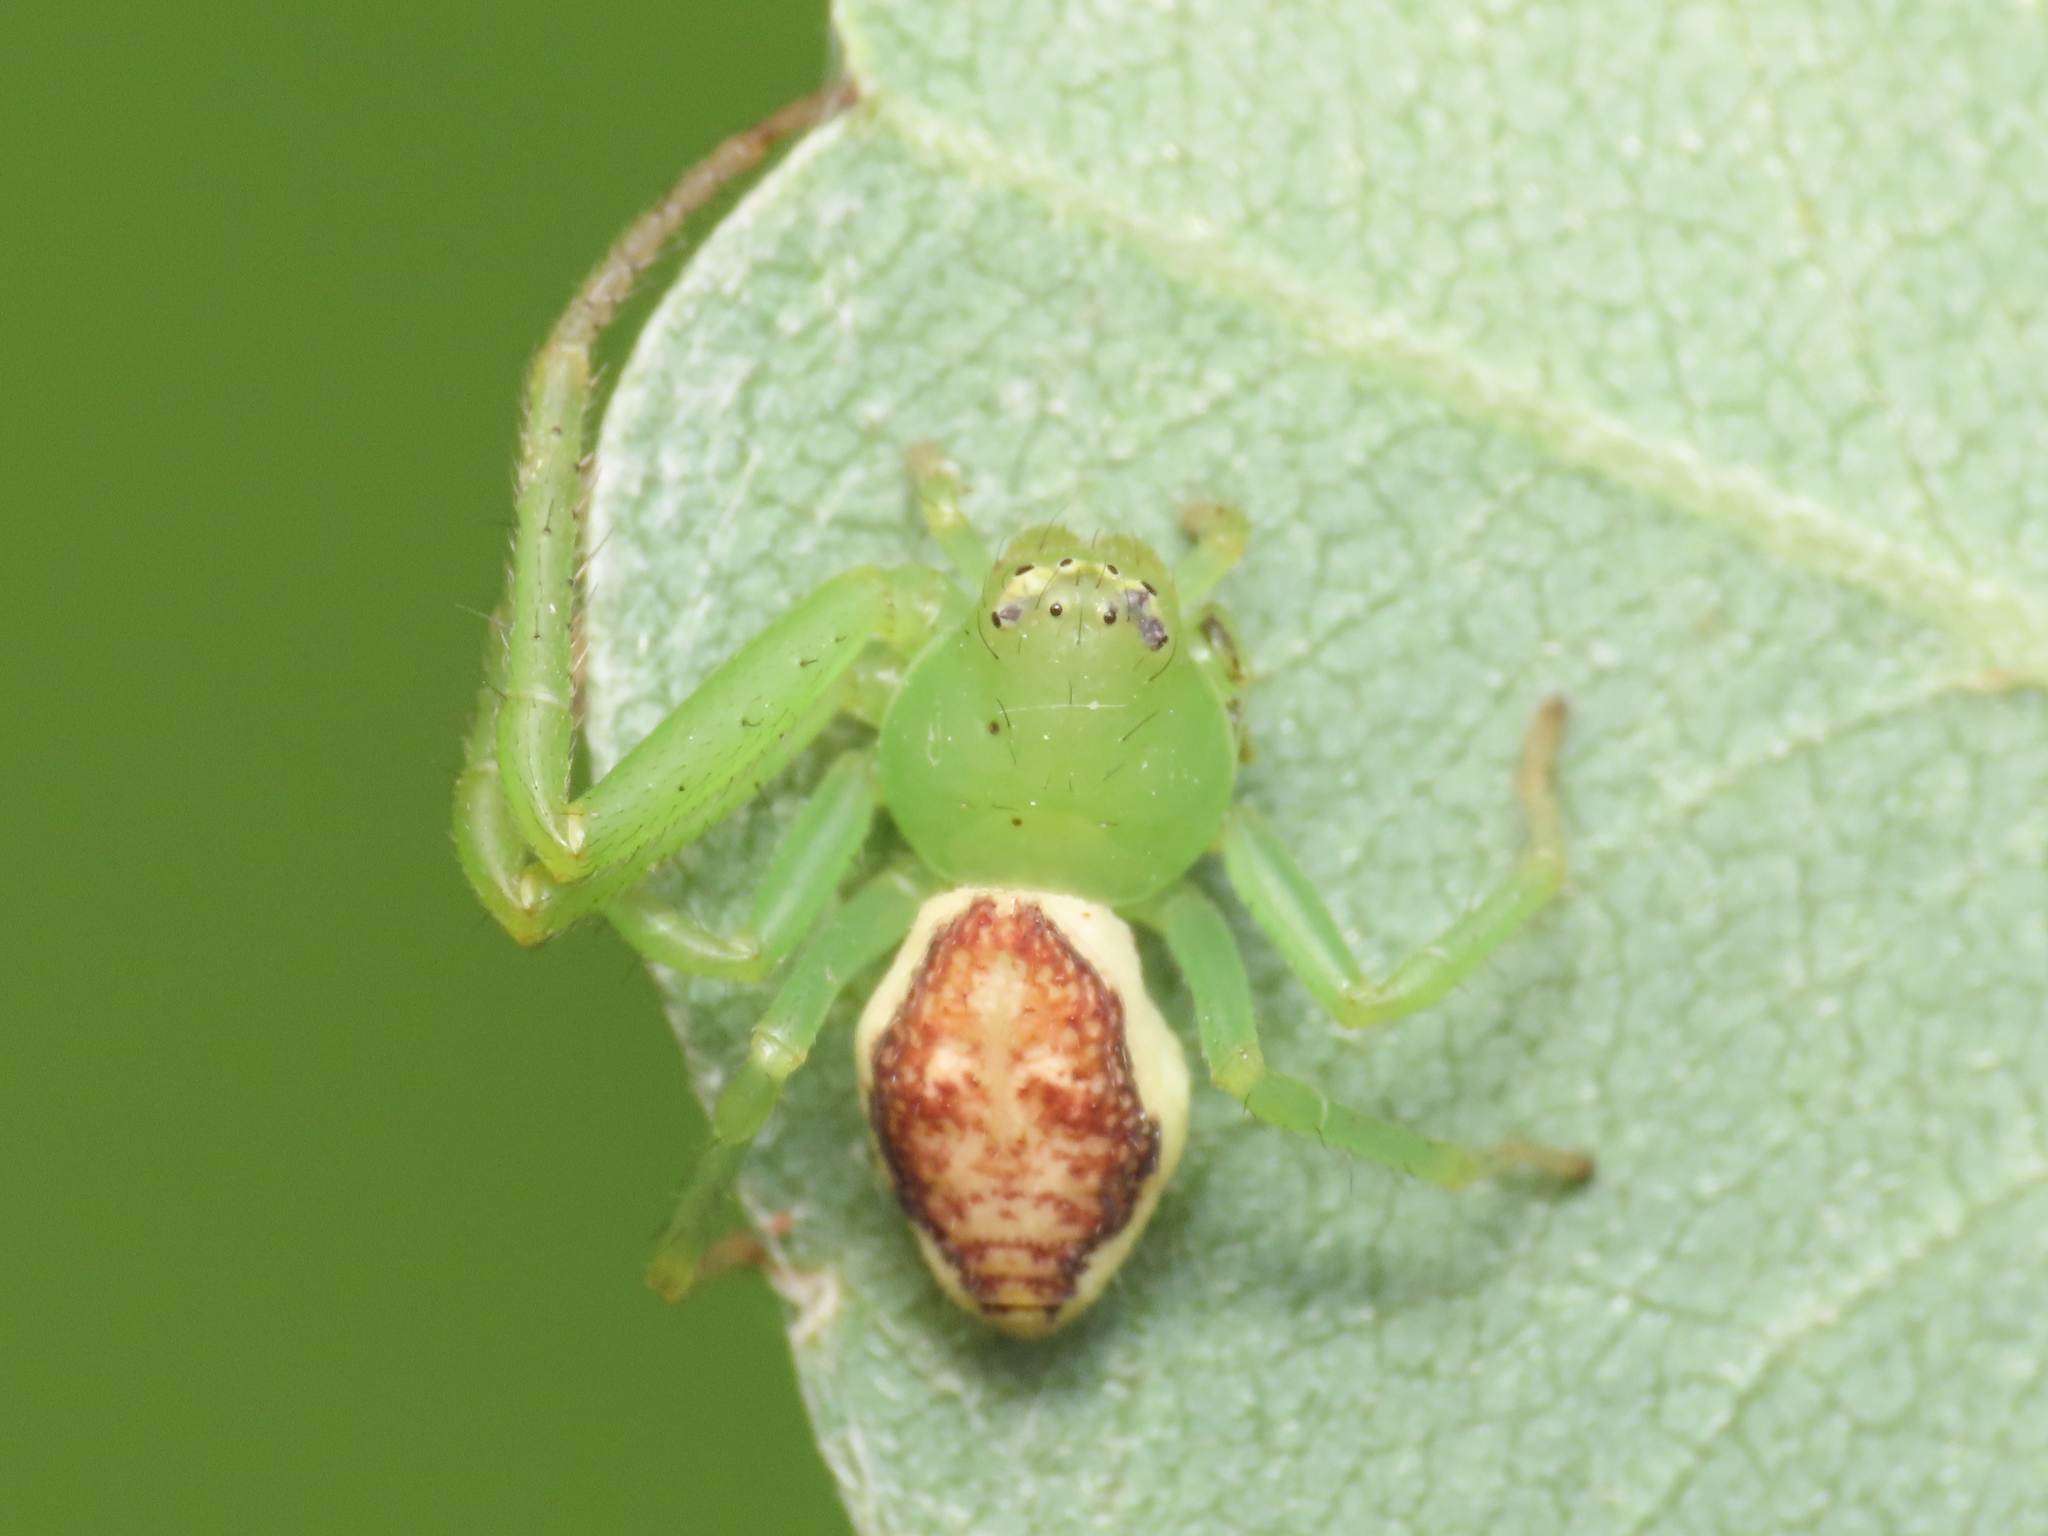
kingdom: Animalia
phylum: Arthropoda
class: Arachnida
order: Araneae
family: Thomisidae
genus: Diaea
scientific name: Diaea dorsata
